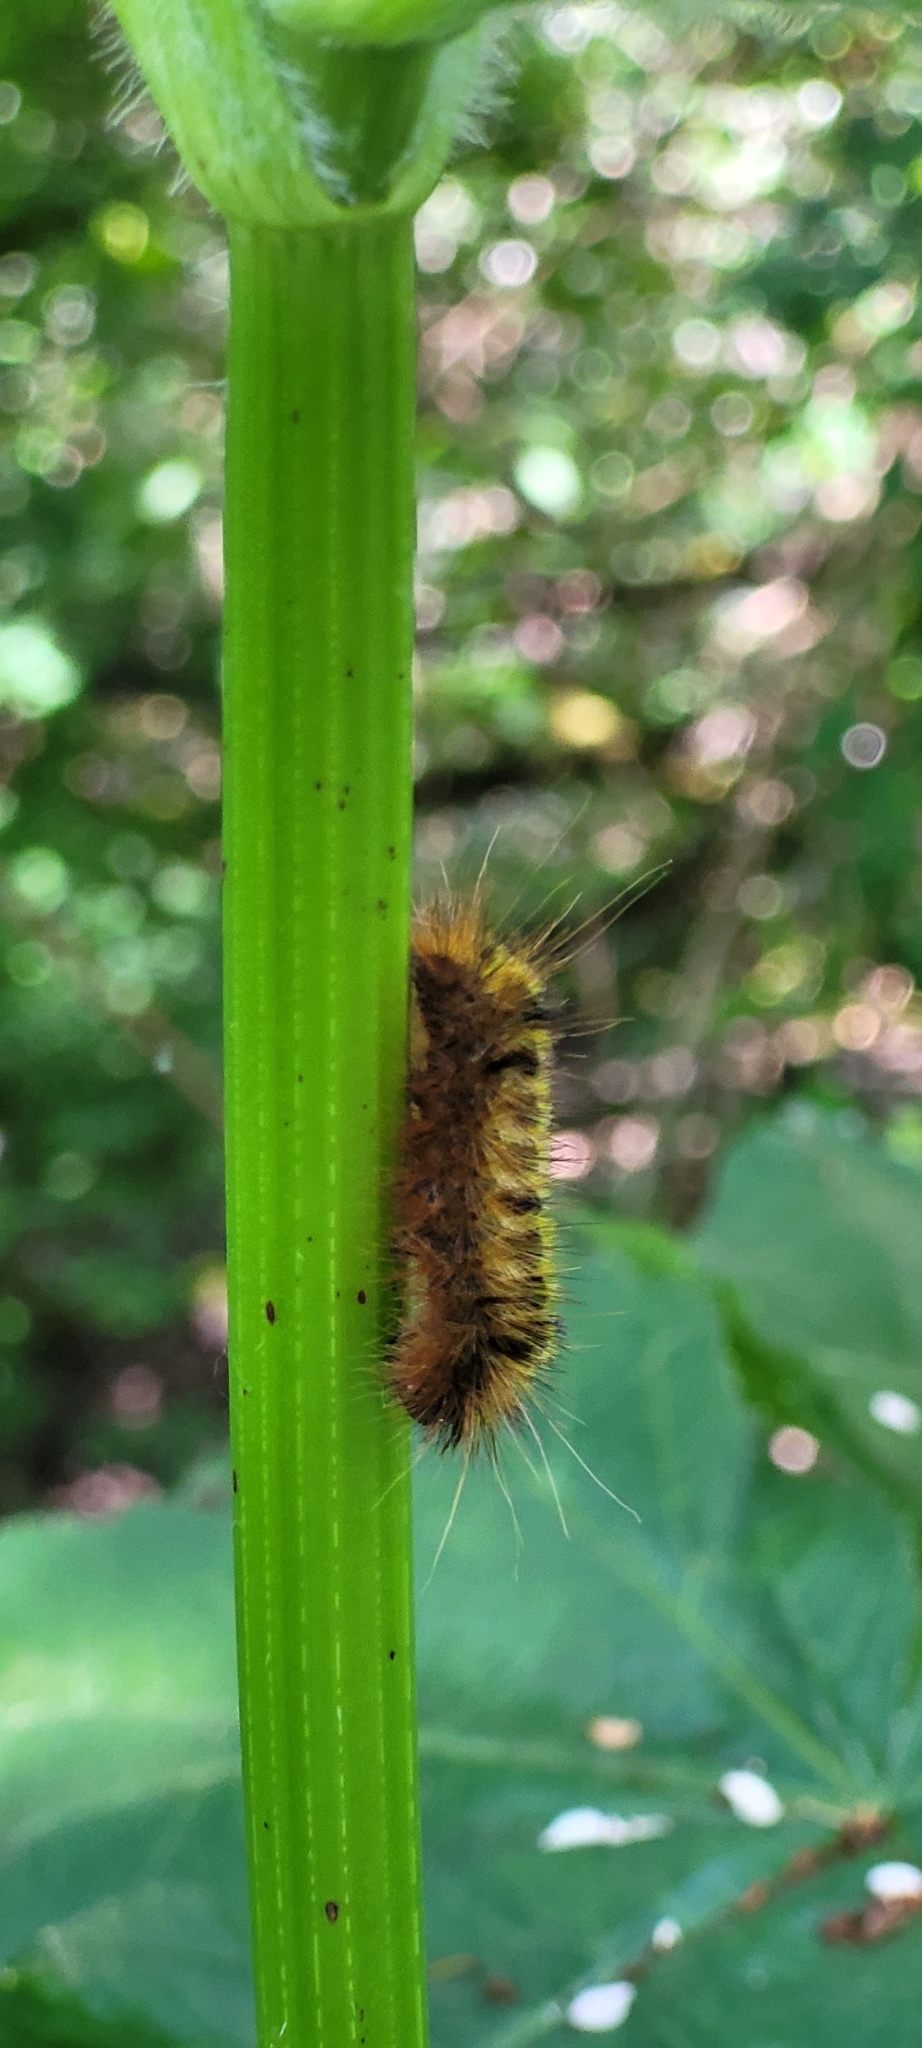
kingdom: Animalia
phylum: Arthropoda
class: Insecta
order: Lepidoptera
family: Erebidae
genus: Lophocampa
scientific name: Lophocampa argentata
